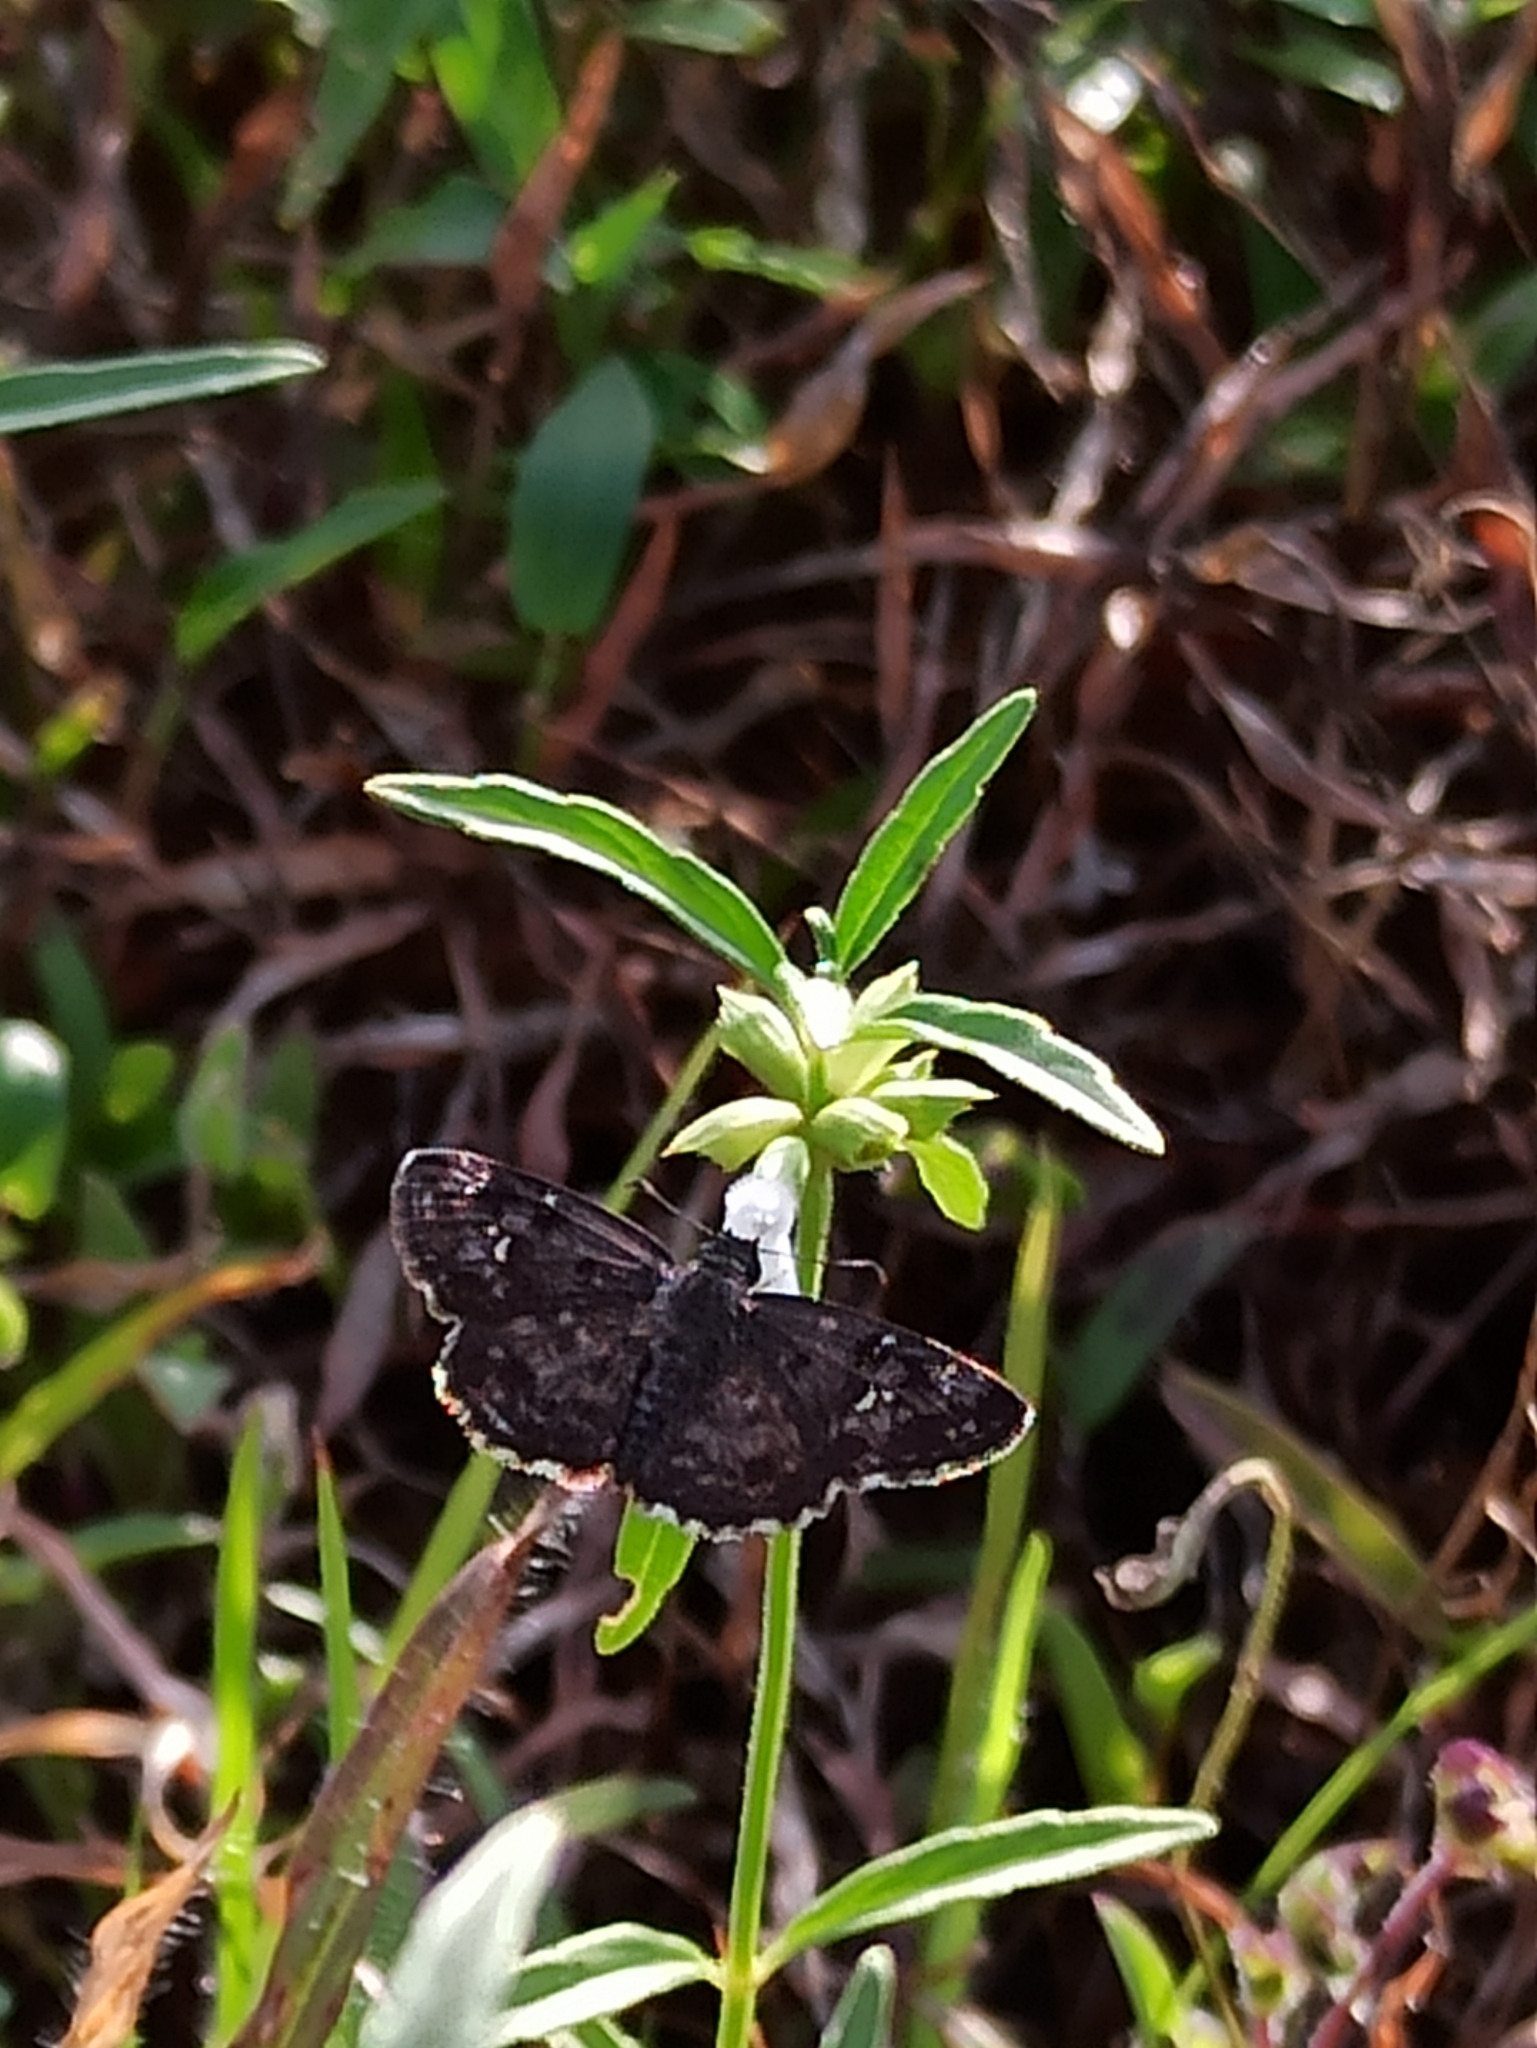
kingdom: Animalia
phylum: Arthropoda
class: Insecta
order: Lepidoptera
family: Hesperiidae
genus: Sarangesa
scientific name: Sarangesa purendra
